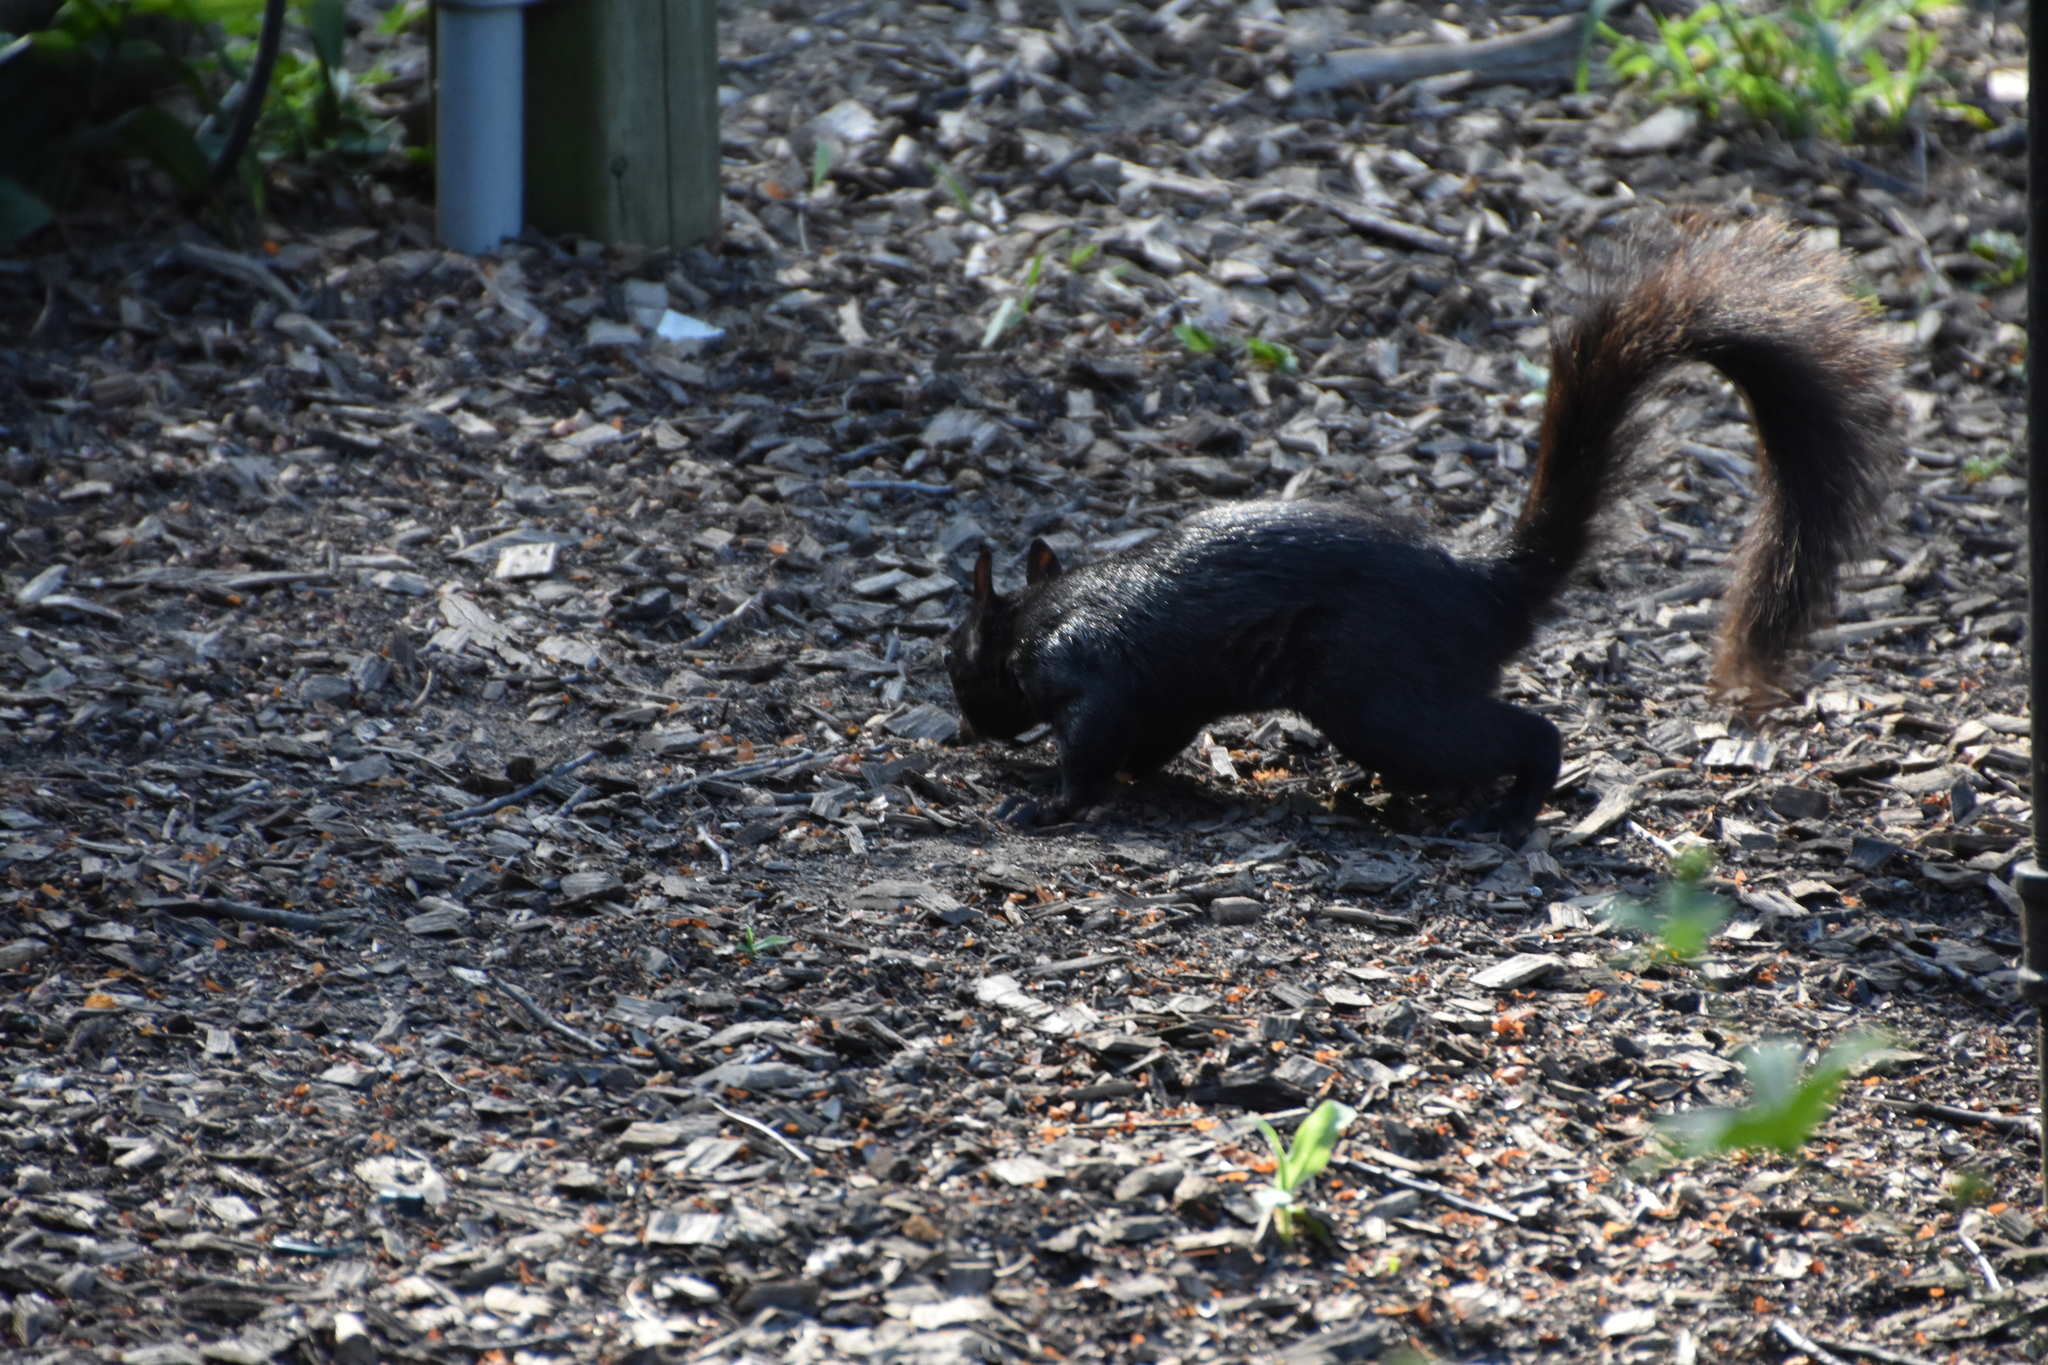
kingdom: Animalia
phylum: Chordata
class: Mammalia
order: Rodentia
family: Sciuridae
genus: Sciurus
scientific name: Sciurus carolinensis
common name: Eastern gray squirrel
